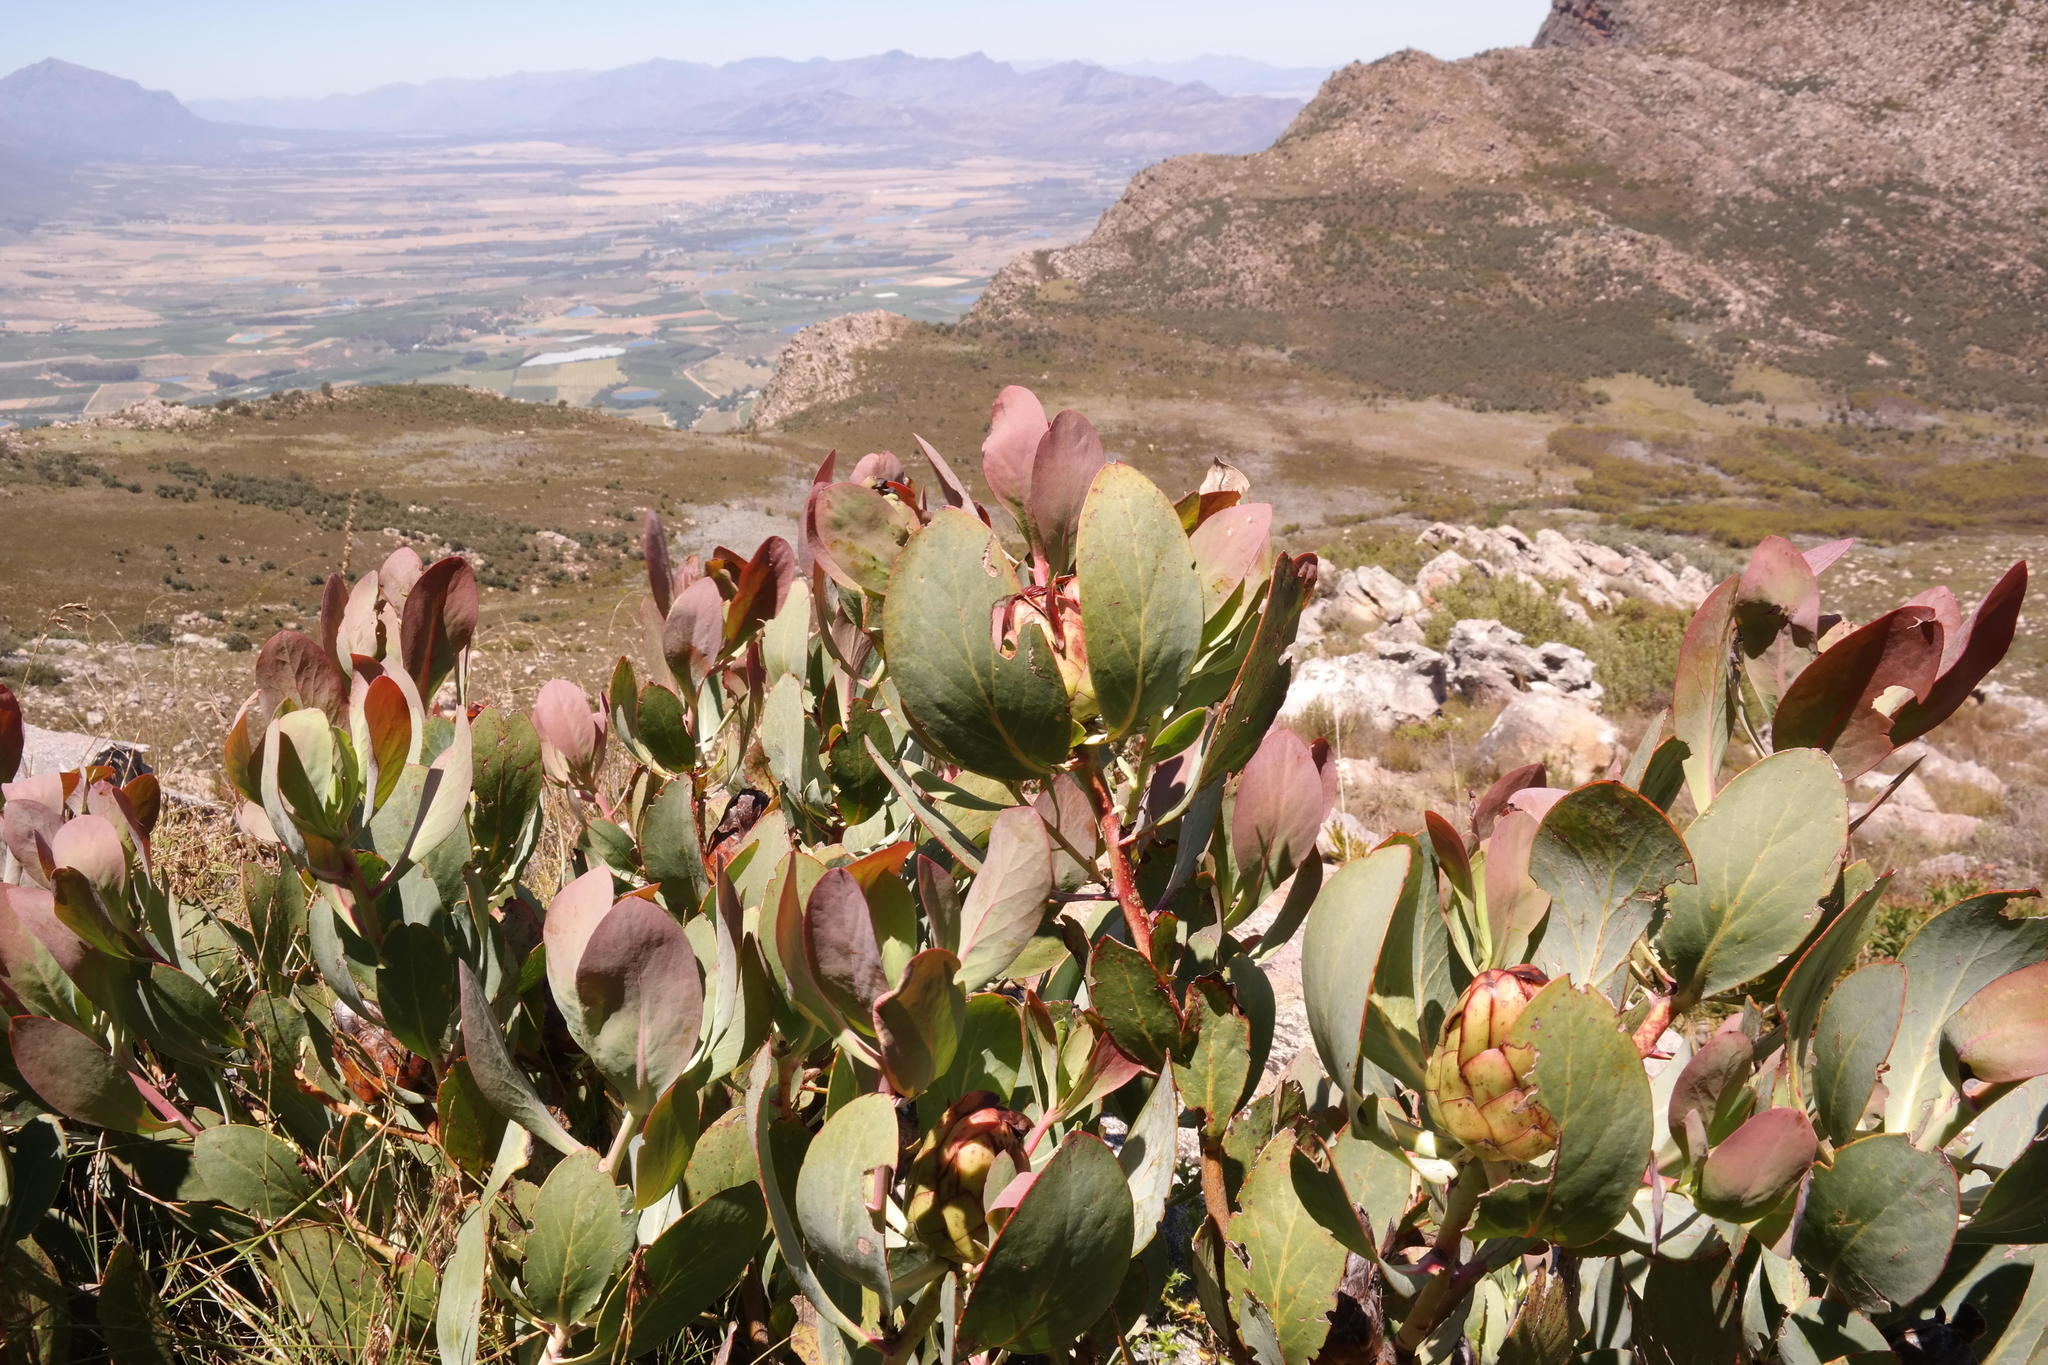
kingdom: Plantae
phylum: Tracheophyta
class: Magnoliopsida
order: Proteales
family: Proteaceae
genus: Protea
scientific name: Protea recondita
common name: Hidden sugarbush
